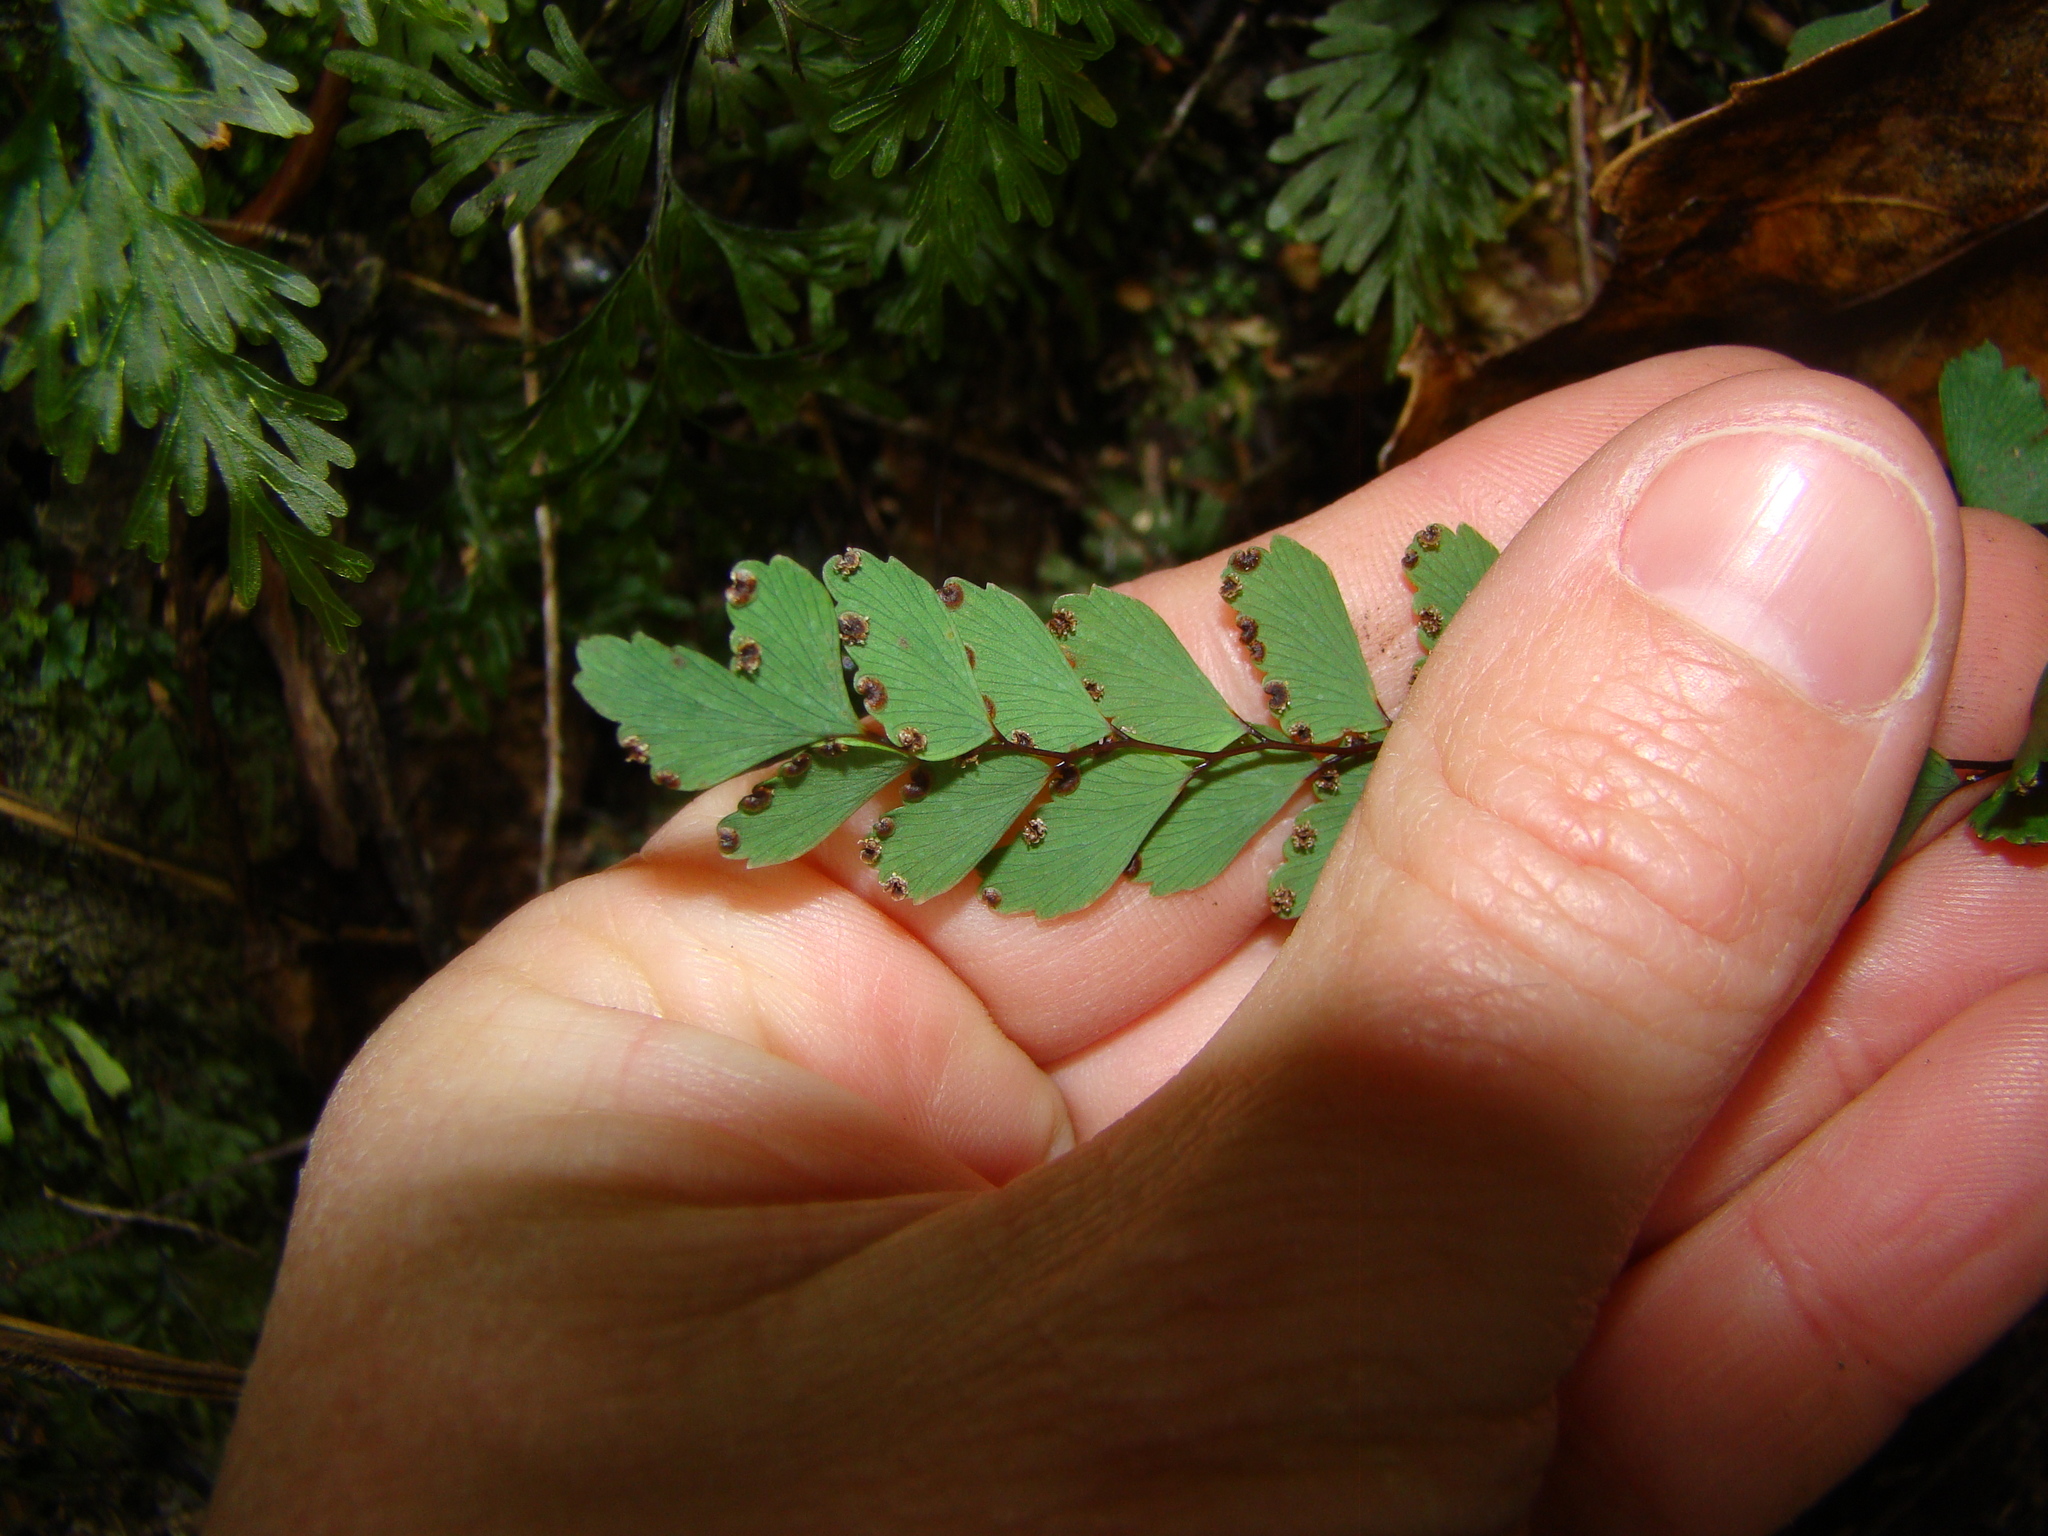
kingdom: Plantae
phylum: Tracheophyta
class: Polypodiopsida
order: Polypodiales
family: Pteridaceae
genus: Adiantum
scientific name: Adiantum cunninghamii
